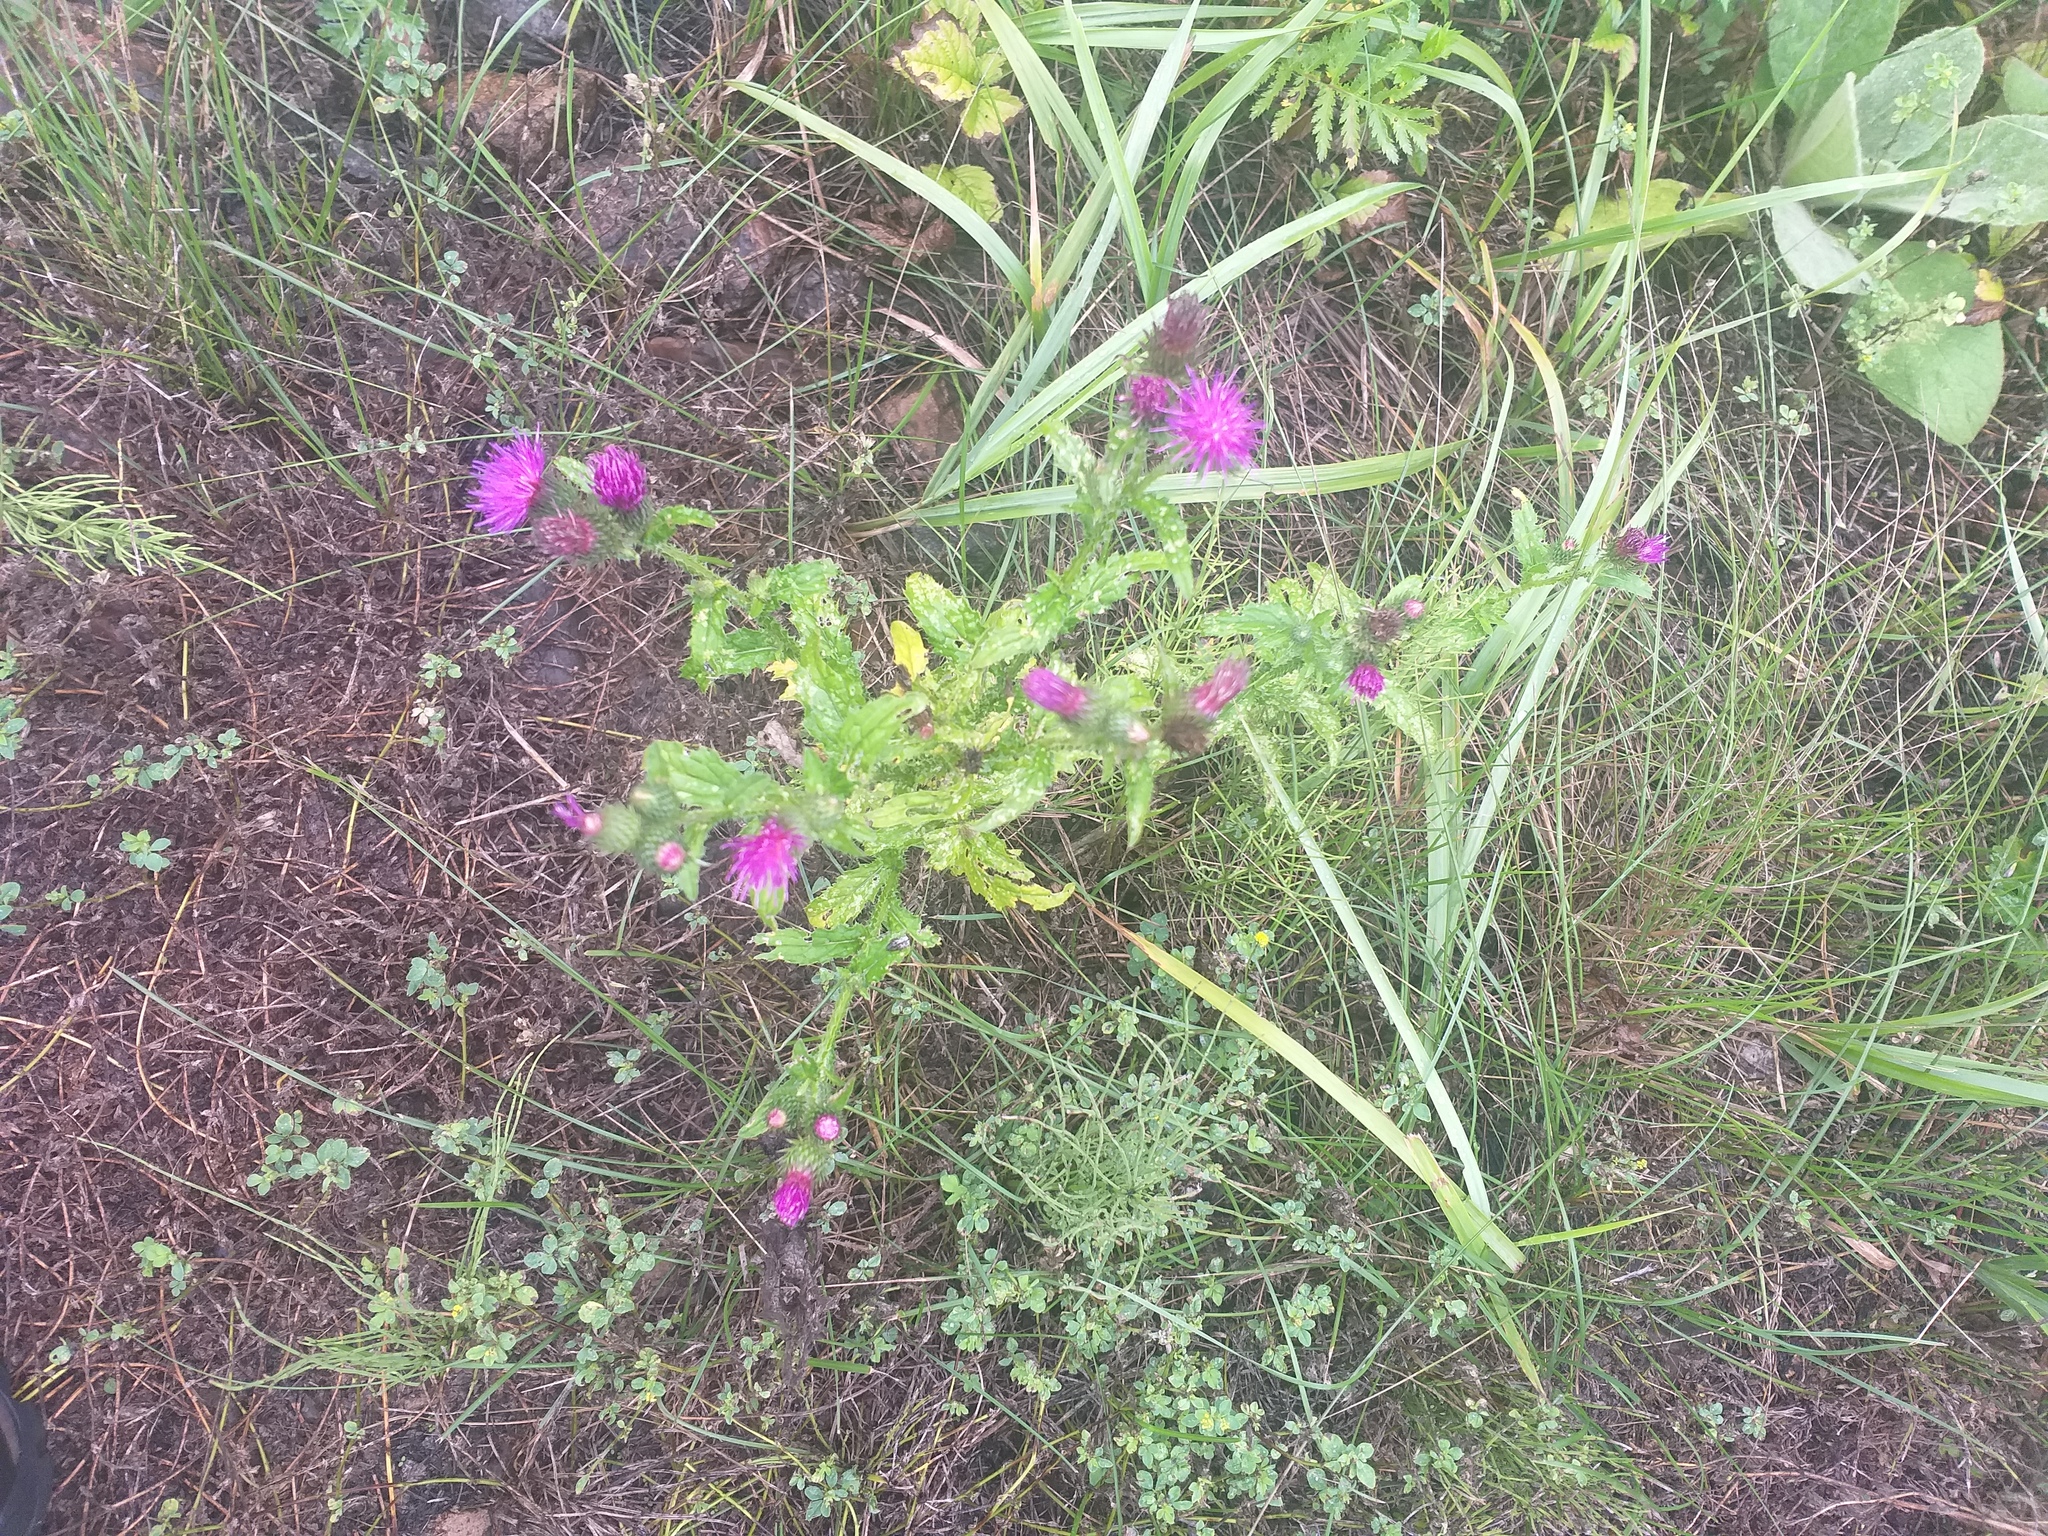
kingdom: Plantae
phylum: Tracheophyta
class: Magnoliopsida
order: Asterales
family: Asteraceae
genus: Carduus
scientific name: Carduus crispus
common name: Welted thistle
